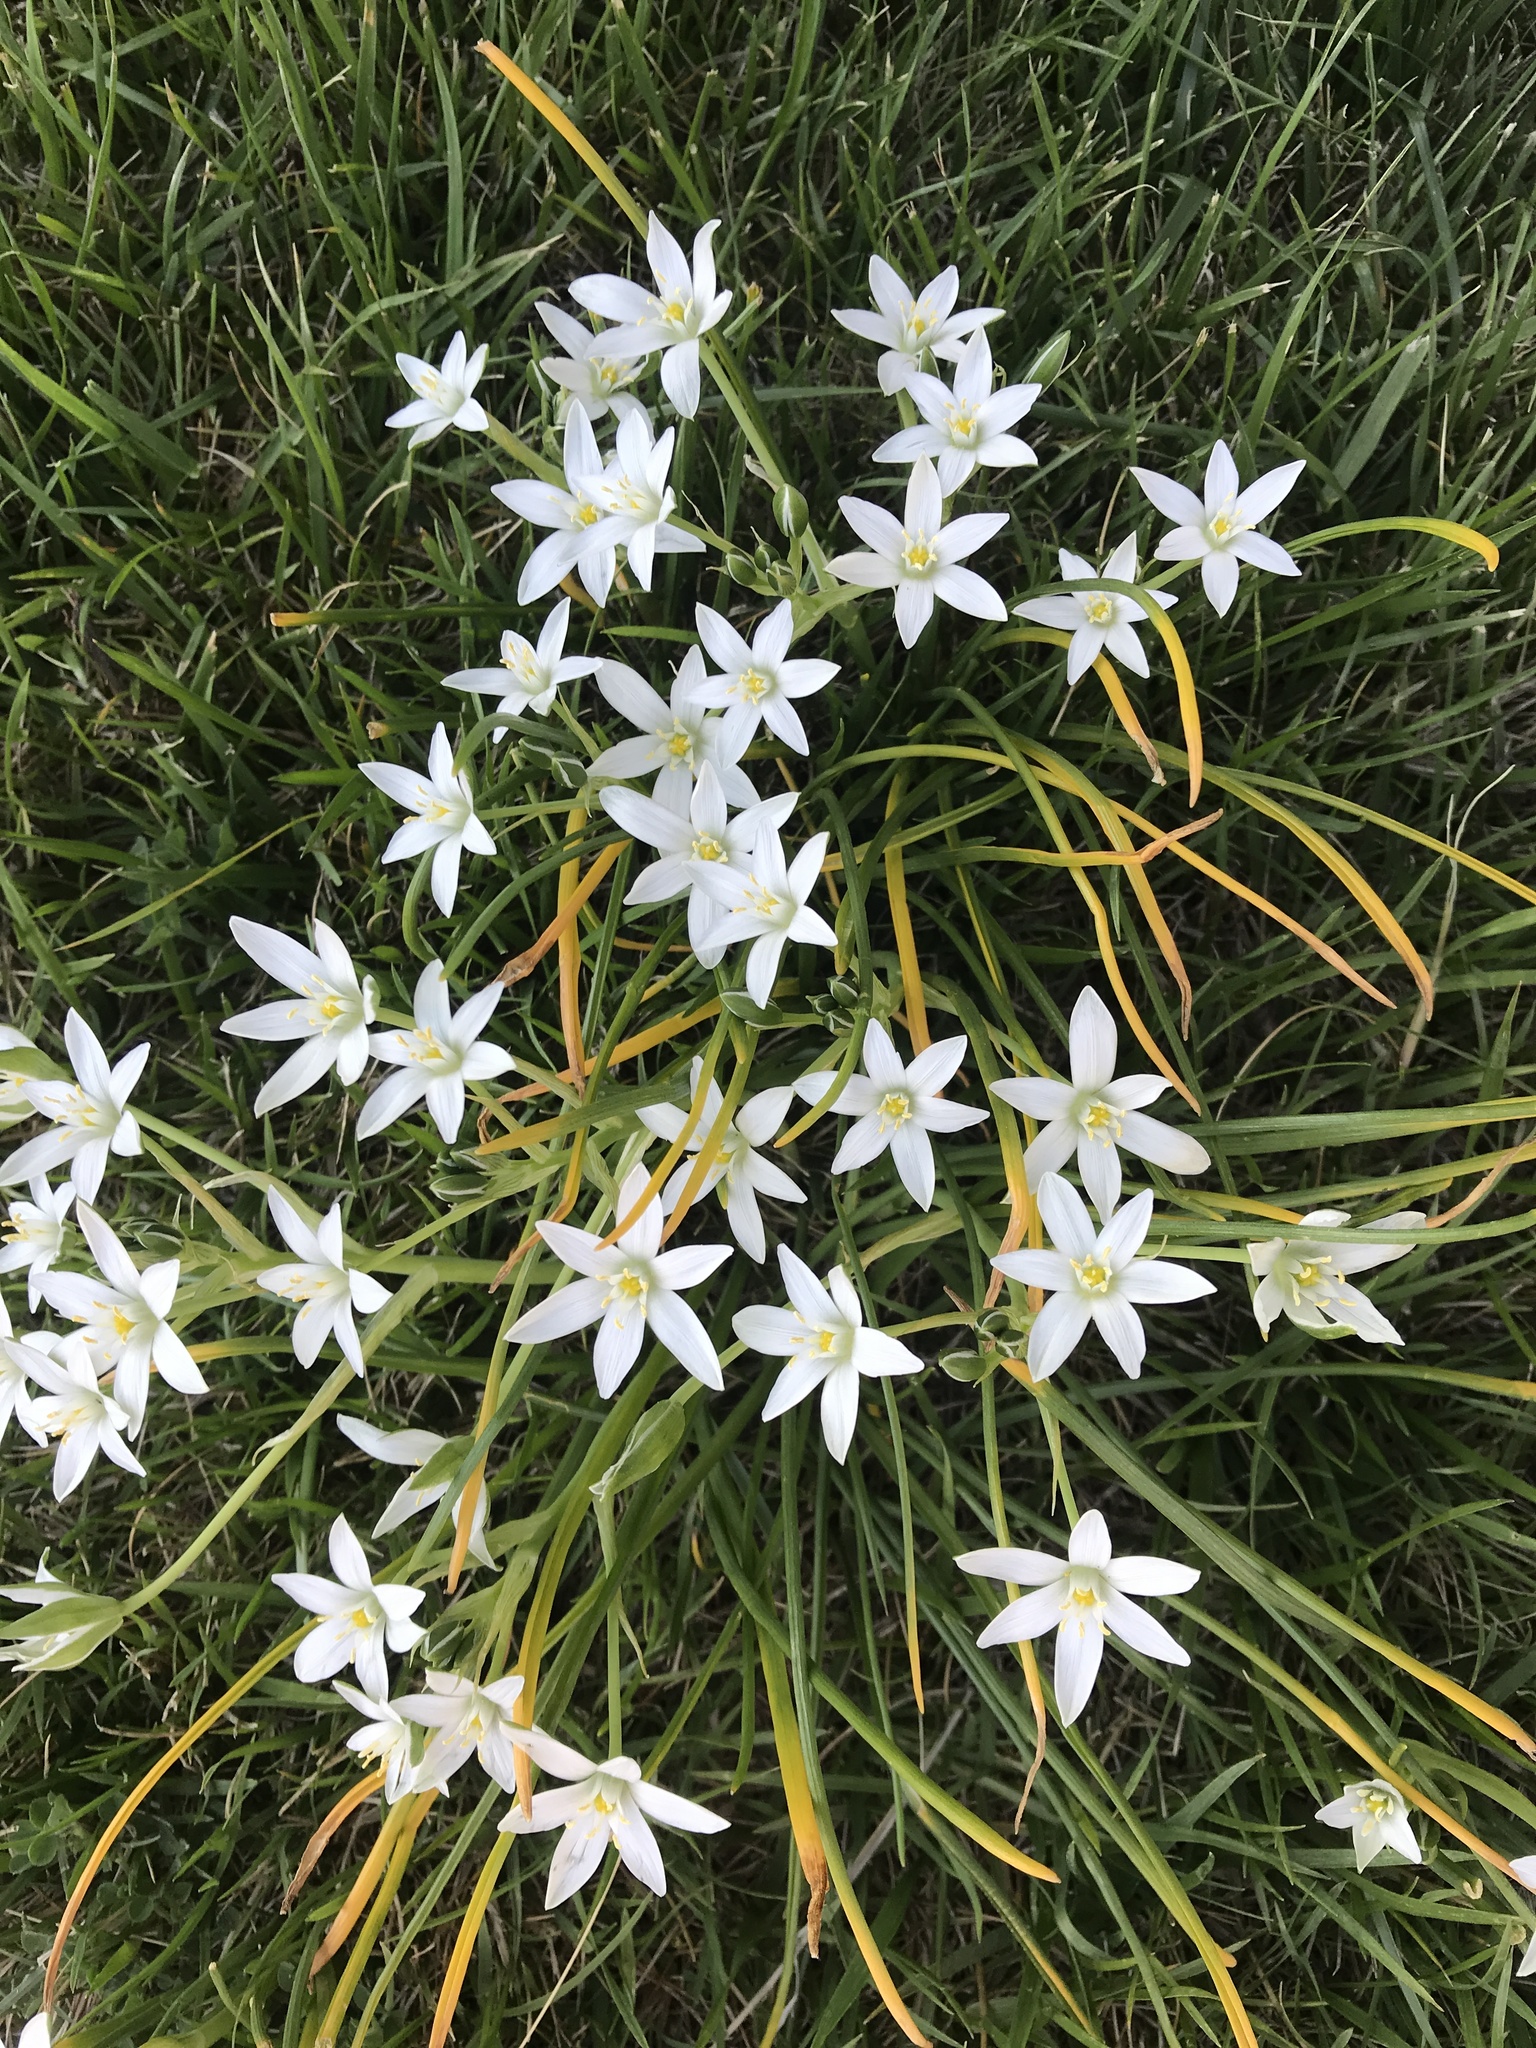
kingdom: Plantae
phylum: Tracheophyta
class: Liliopsida
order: Asparagales
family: Asparagaceae
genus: Ornithogalum
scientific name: Ornithogalum umbellatum
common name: Garden star-of-bethlehem
